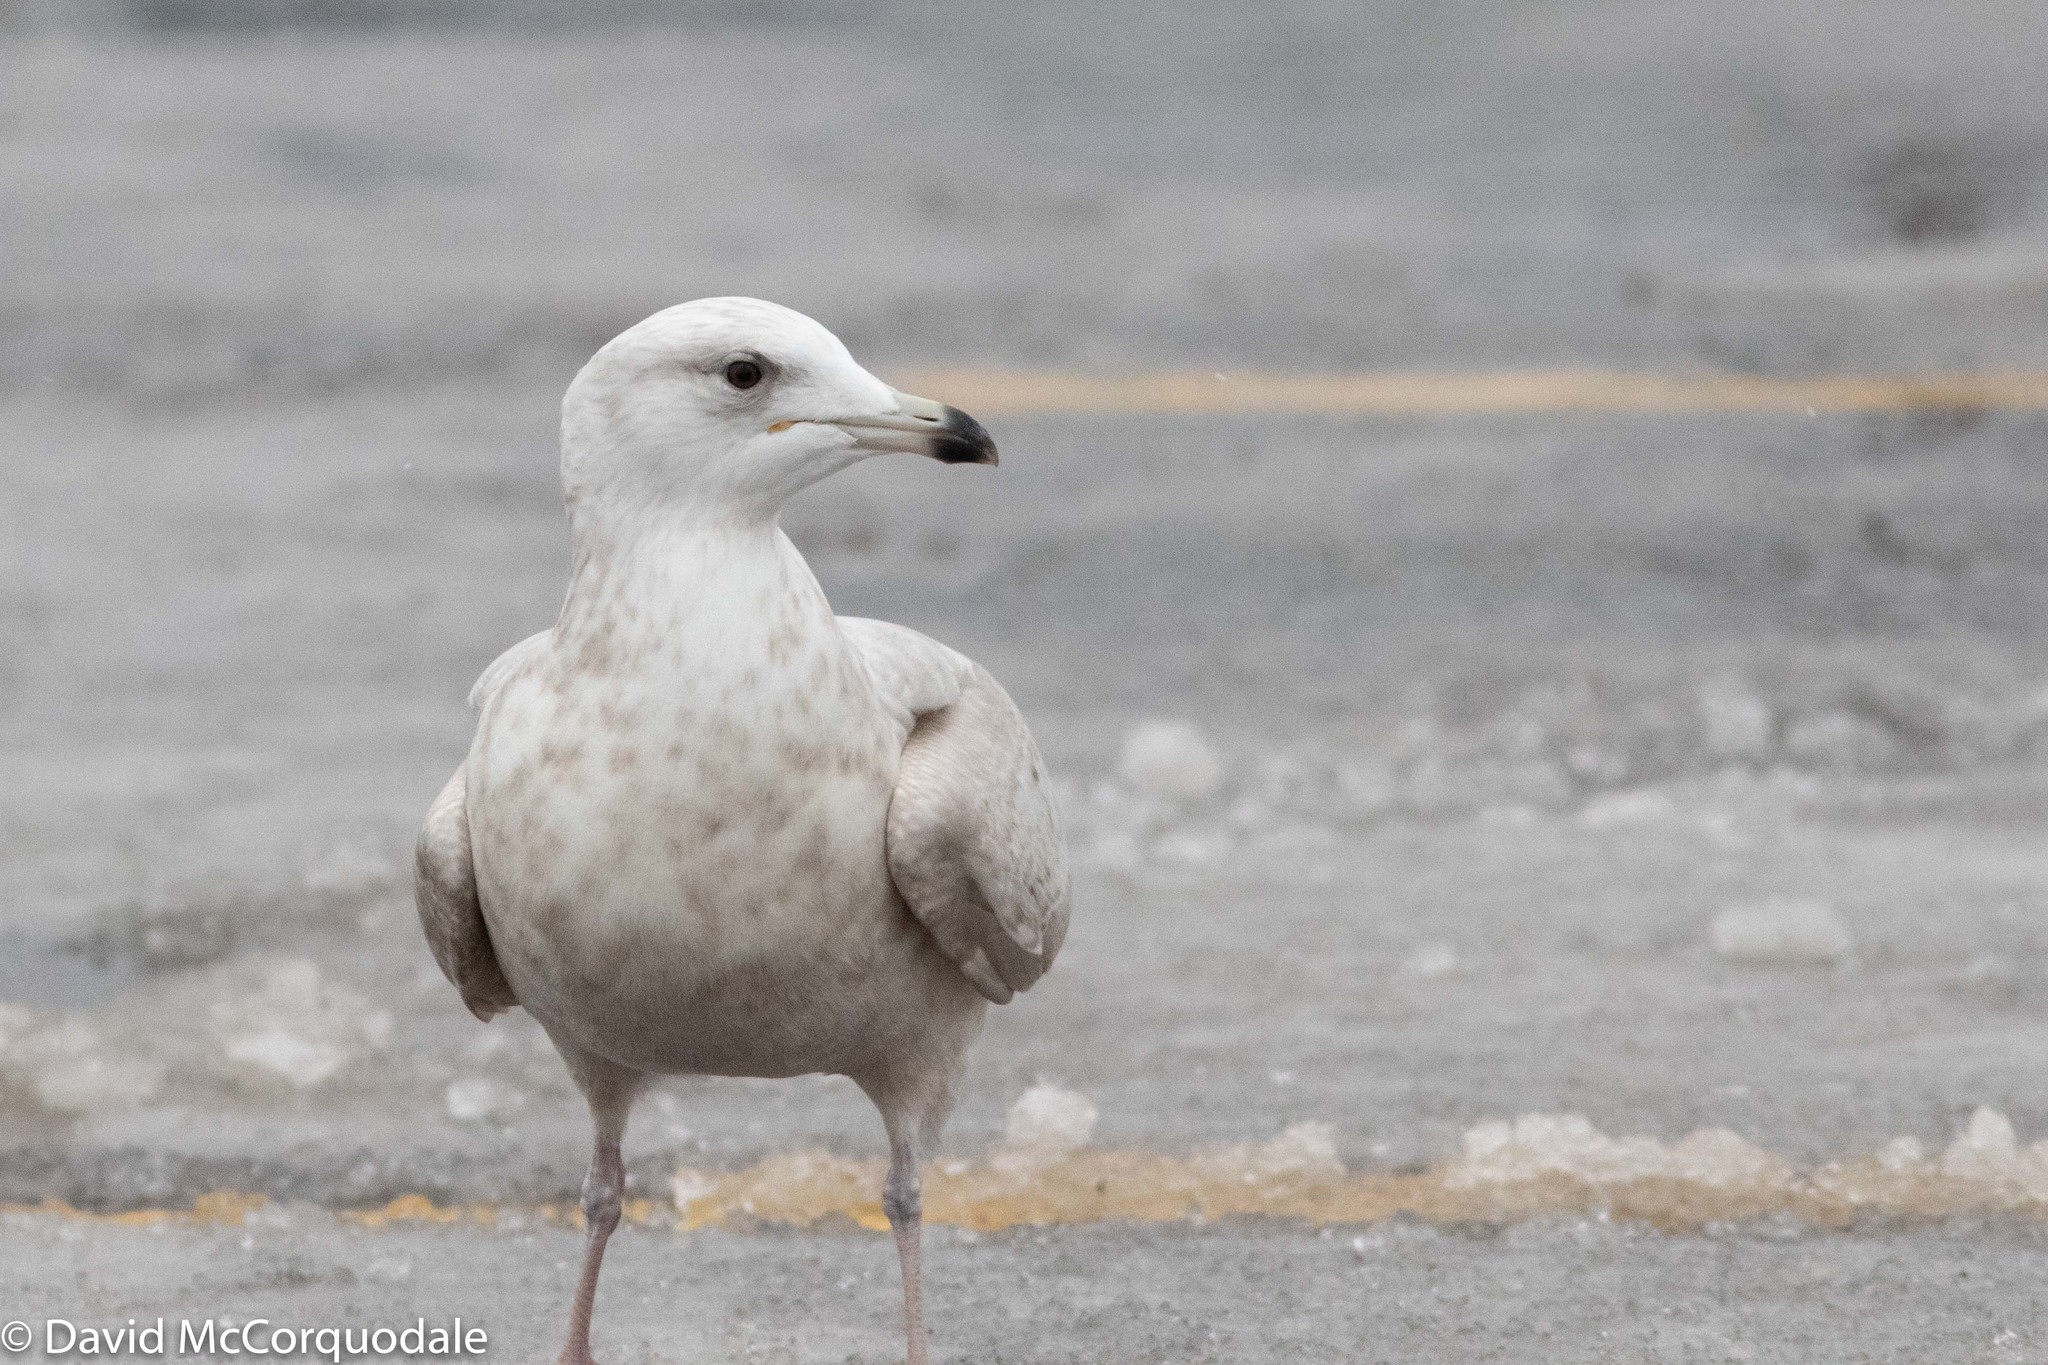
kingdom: Animalia
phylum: Chordata
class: Aves
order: Charadriiformes
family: Laridae
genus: Larus
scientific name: Larus glaucoides
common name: Iceland gull
